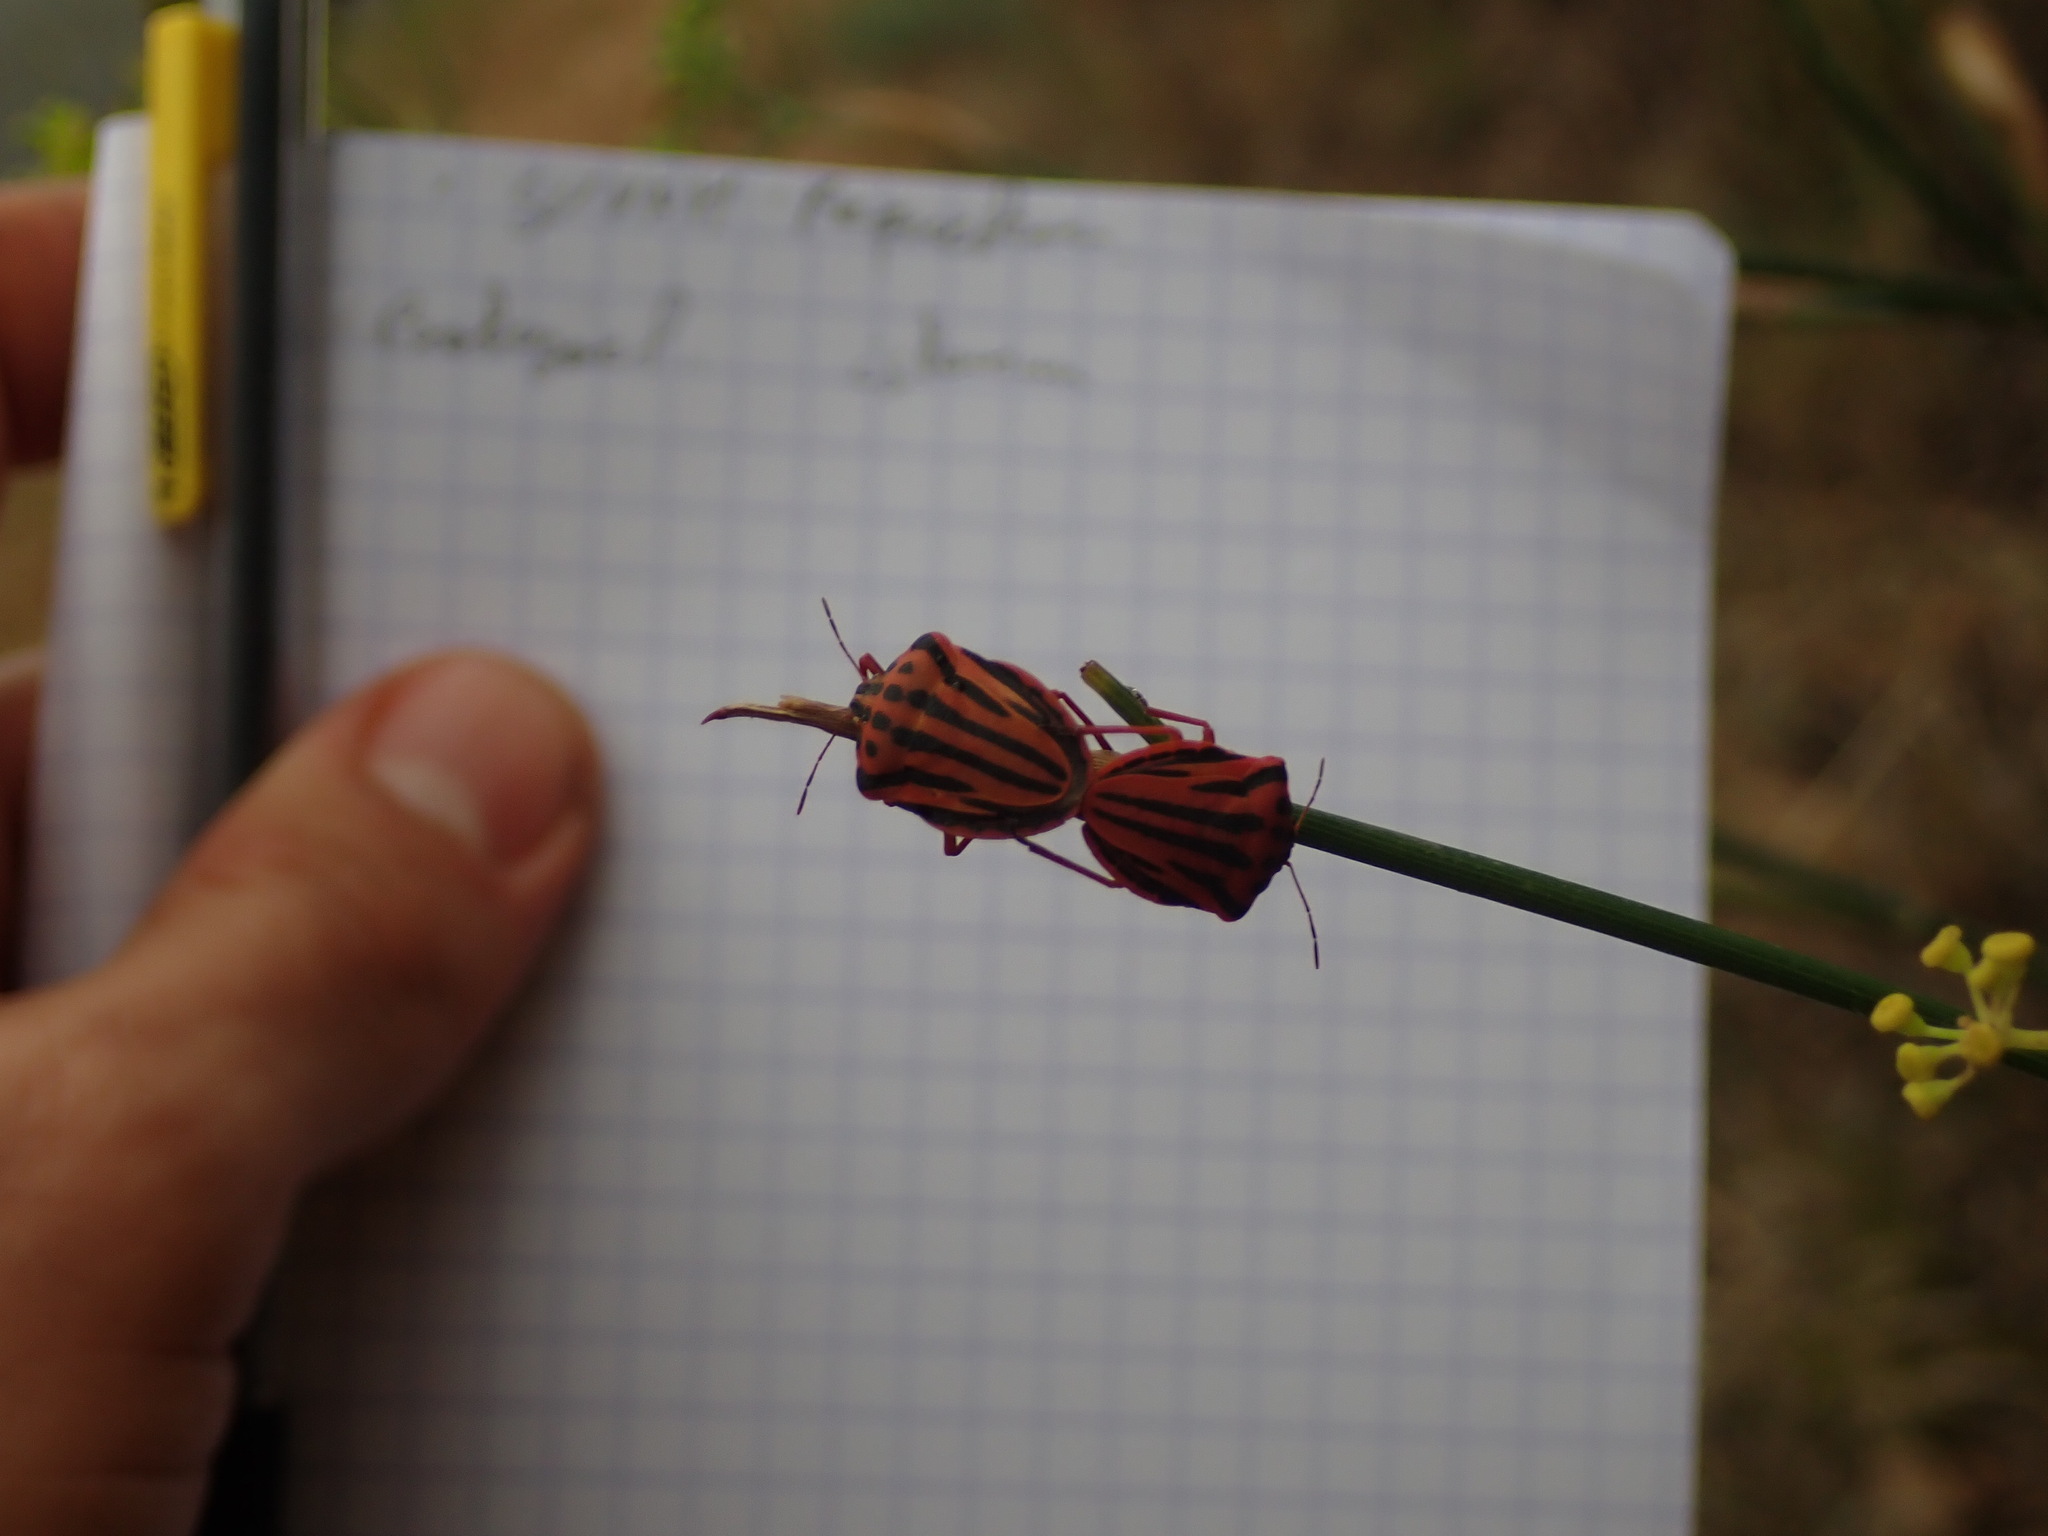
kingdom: Animalia
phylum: Arthropoda
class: Insecta
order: Hemiptera
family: Pentatomidae
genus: Graphosoma
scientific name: Graphosoma semipunctatum
